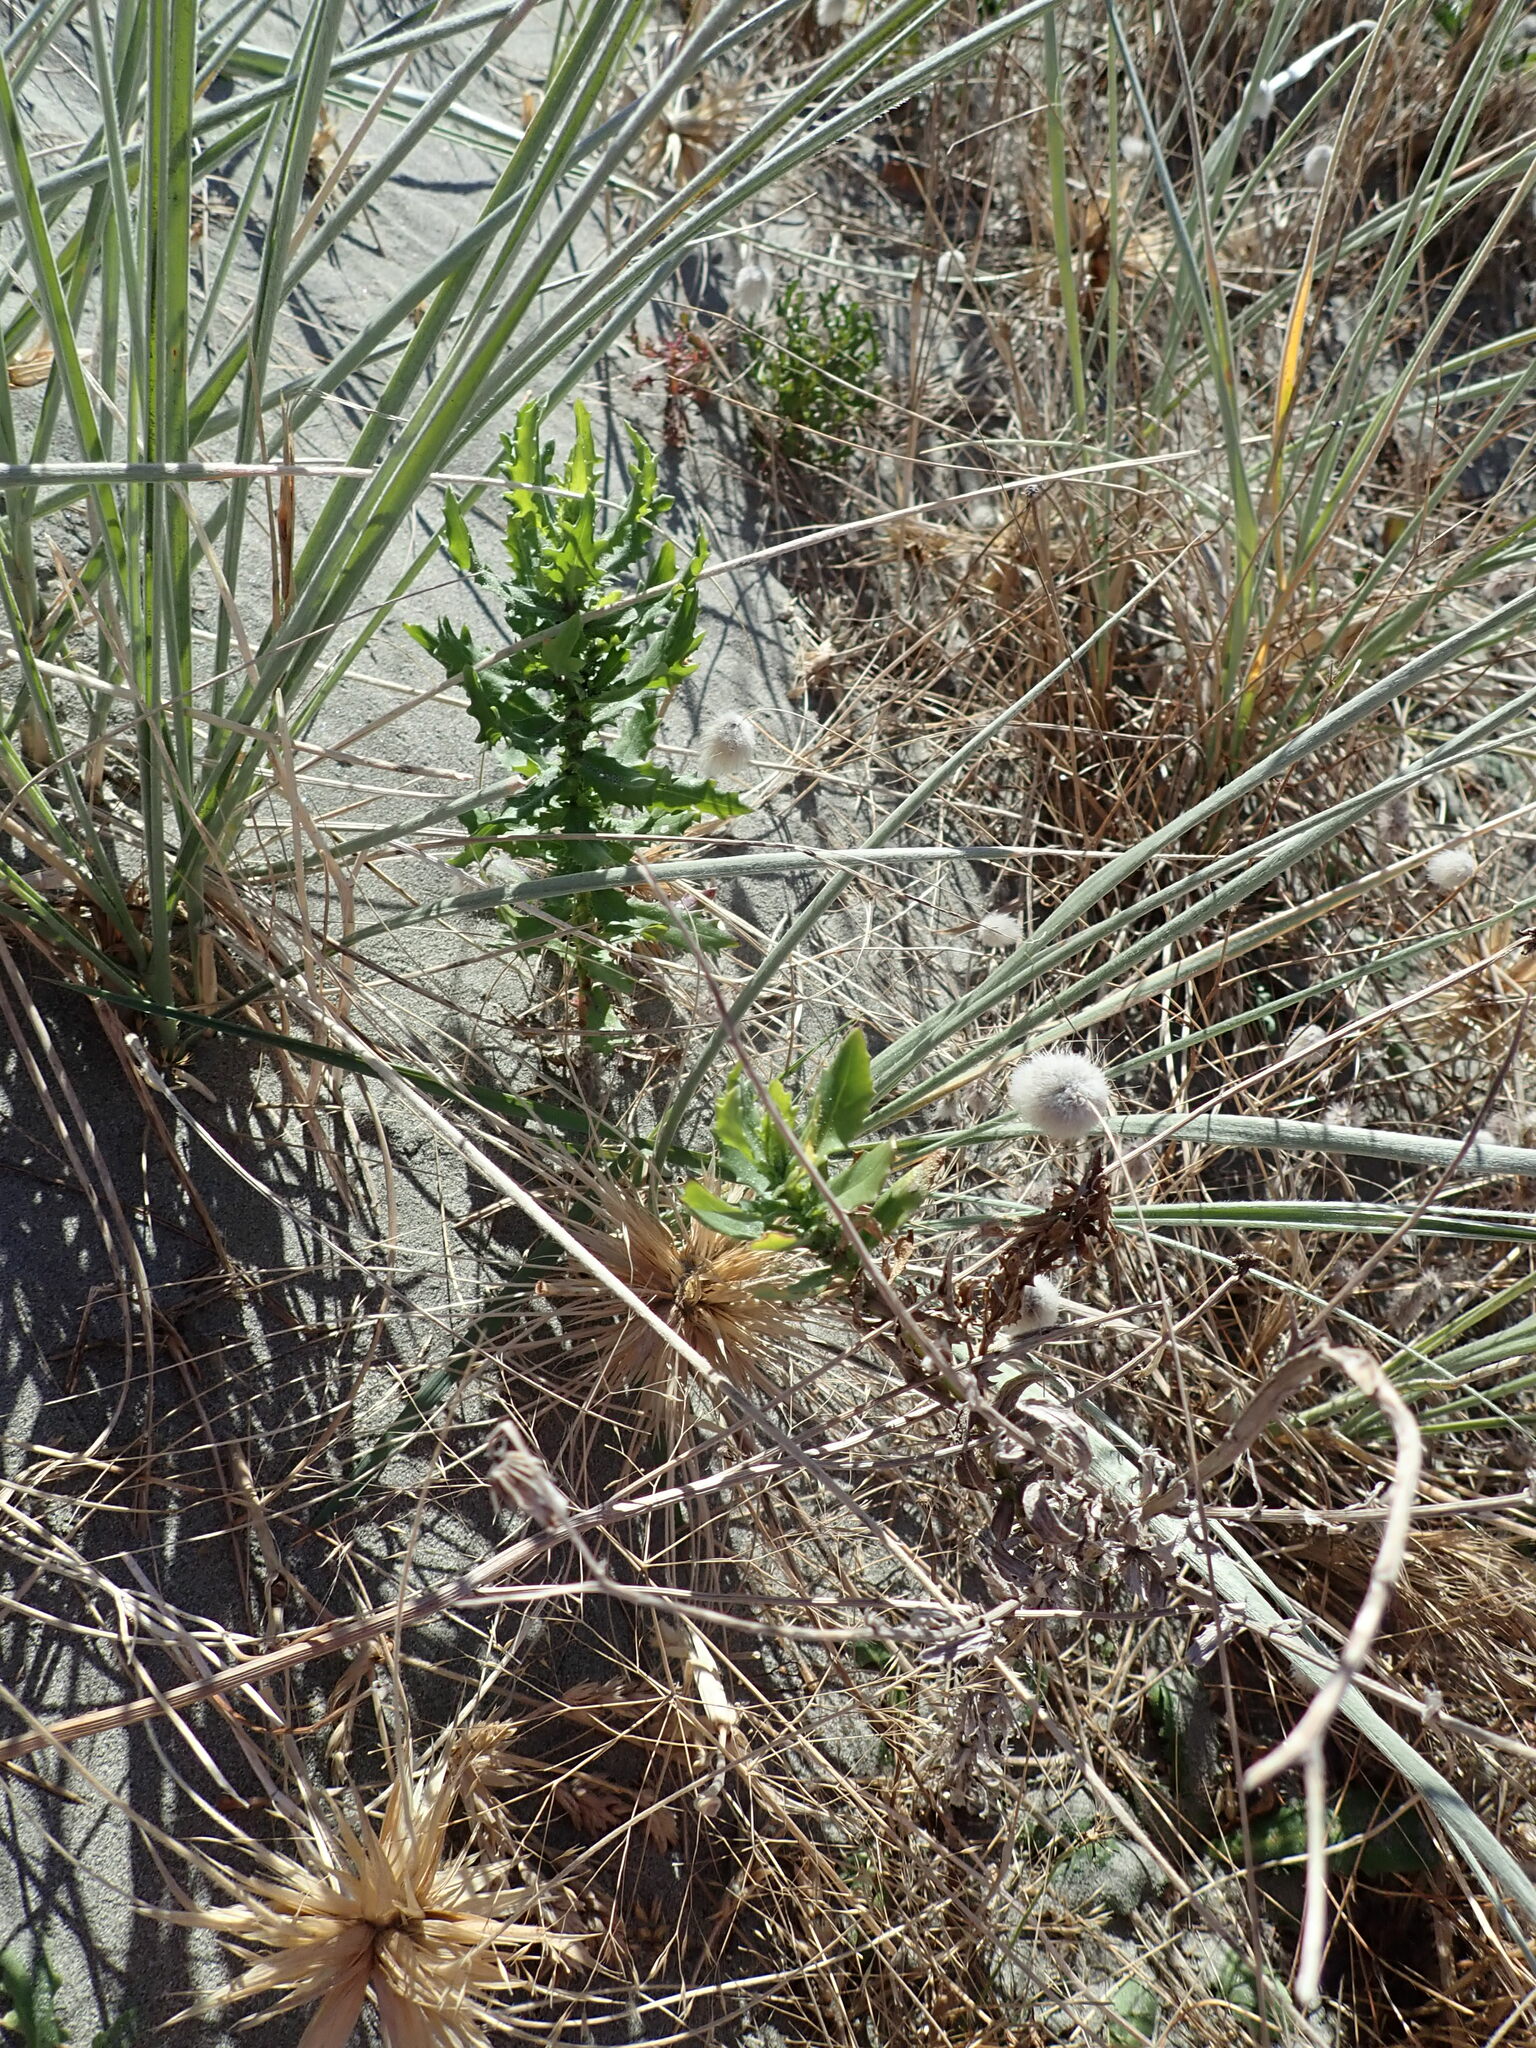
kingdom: Plantae
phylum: Tracheophyta
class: Magnoliopsida
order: Asterales
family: Asteraceae
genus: Senecio
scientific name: Senecio glastifolius
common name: Woad-leaved ragwort
